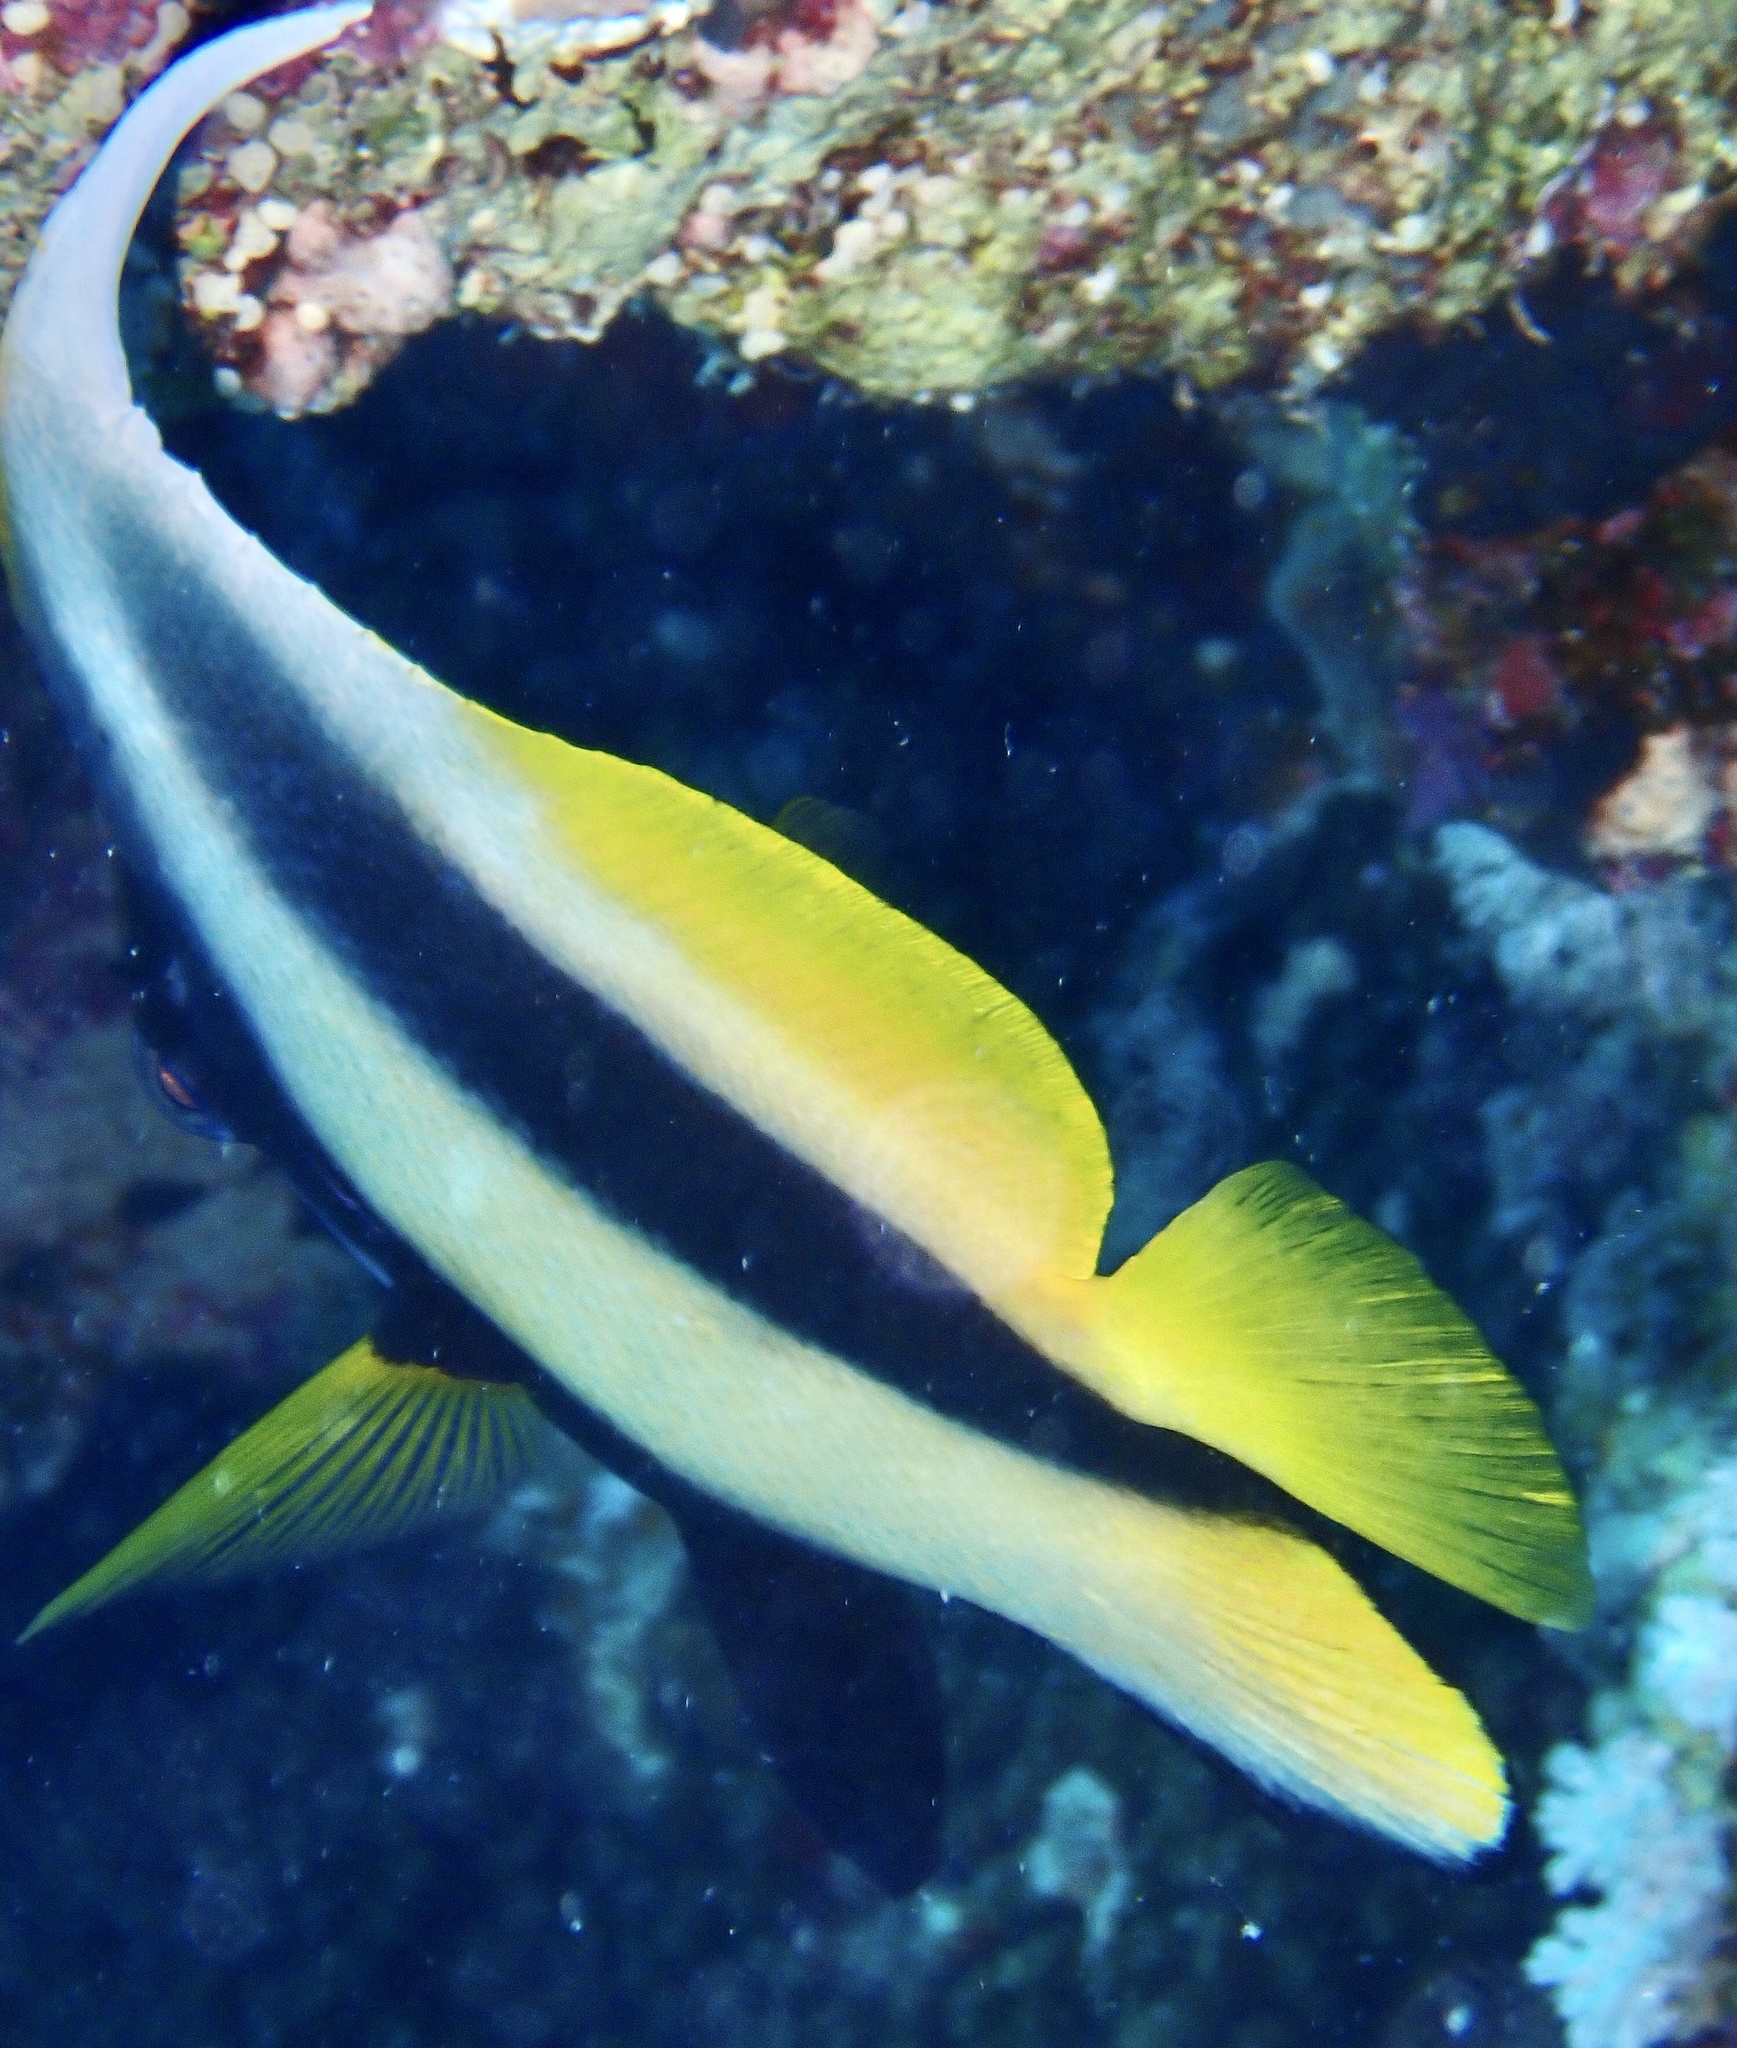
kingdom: Animalia
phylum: Chordata
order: Perciformes
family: Chaetodontidae
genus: Heniochus
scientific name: Heniochus intermedius
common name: Red sea bannerfish
